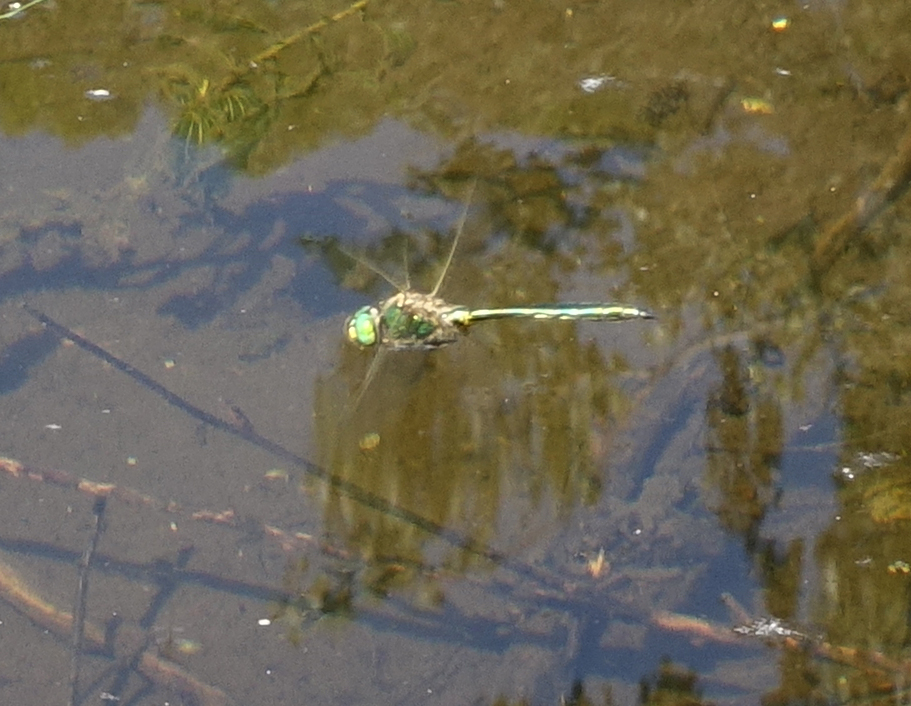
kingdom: Animalia
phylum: Arthropoda
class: Insecta
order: Odonata
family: Corduliidae
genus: Somatochlora
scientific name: Somatochlora metallica
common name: Brilliant emerald
